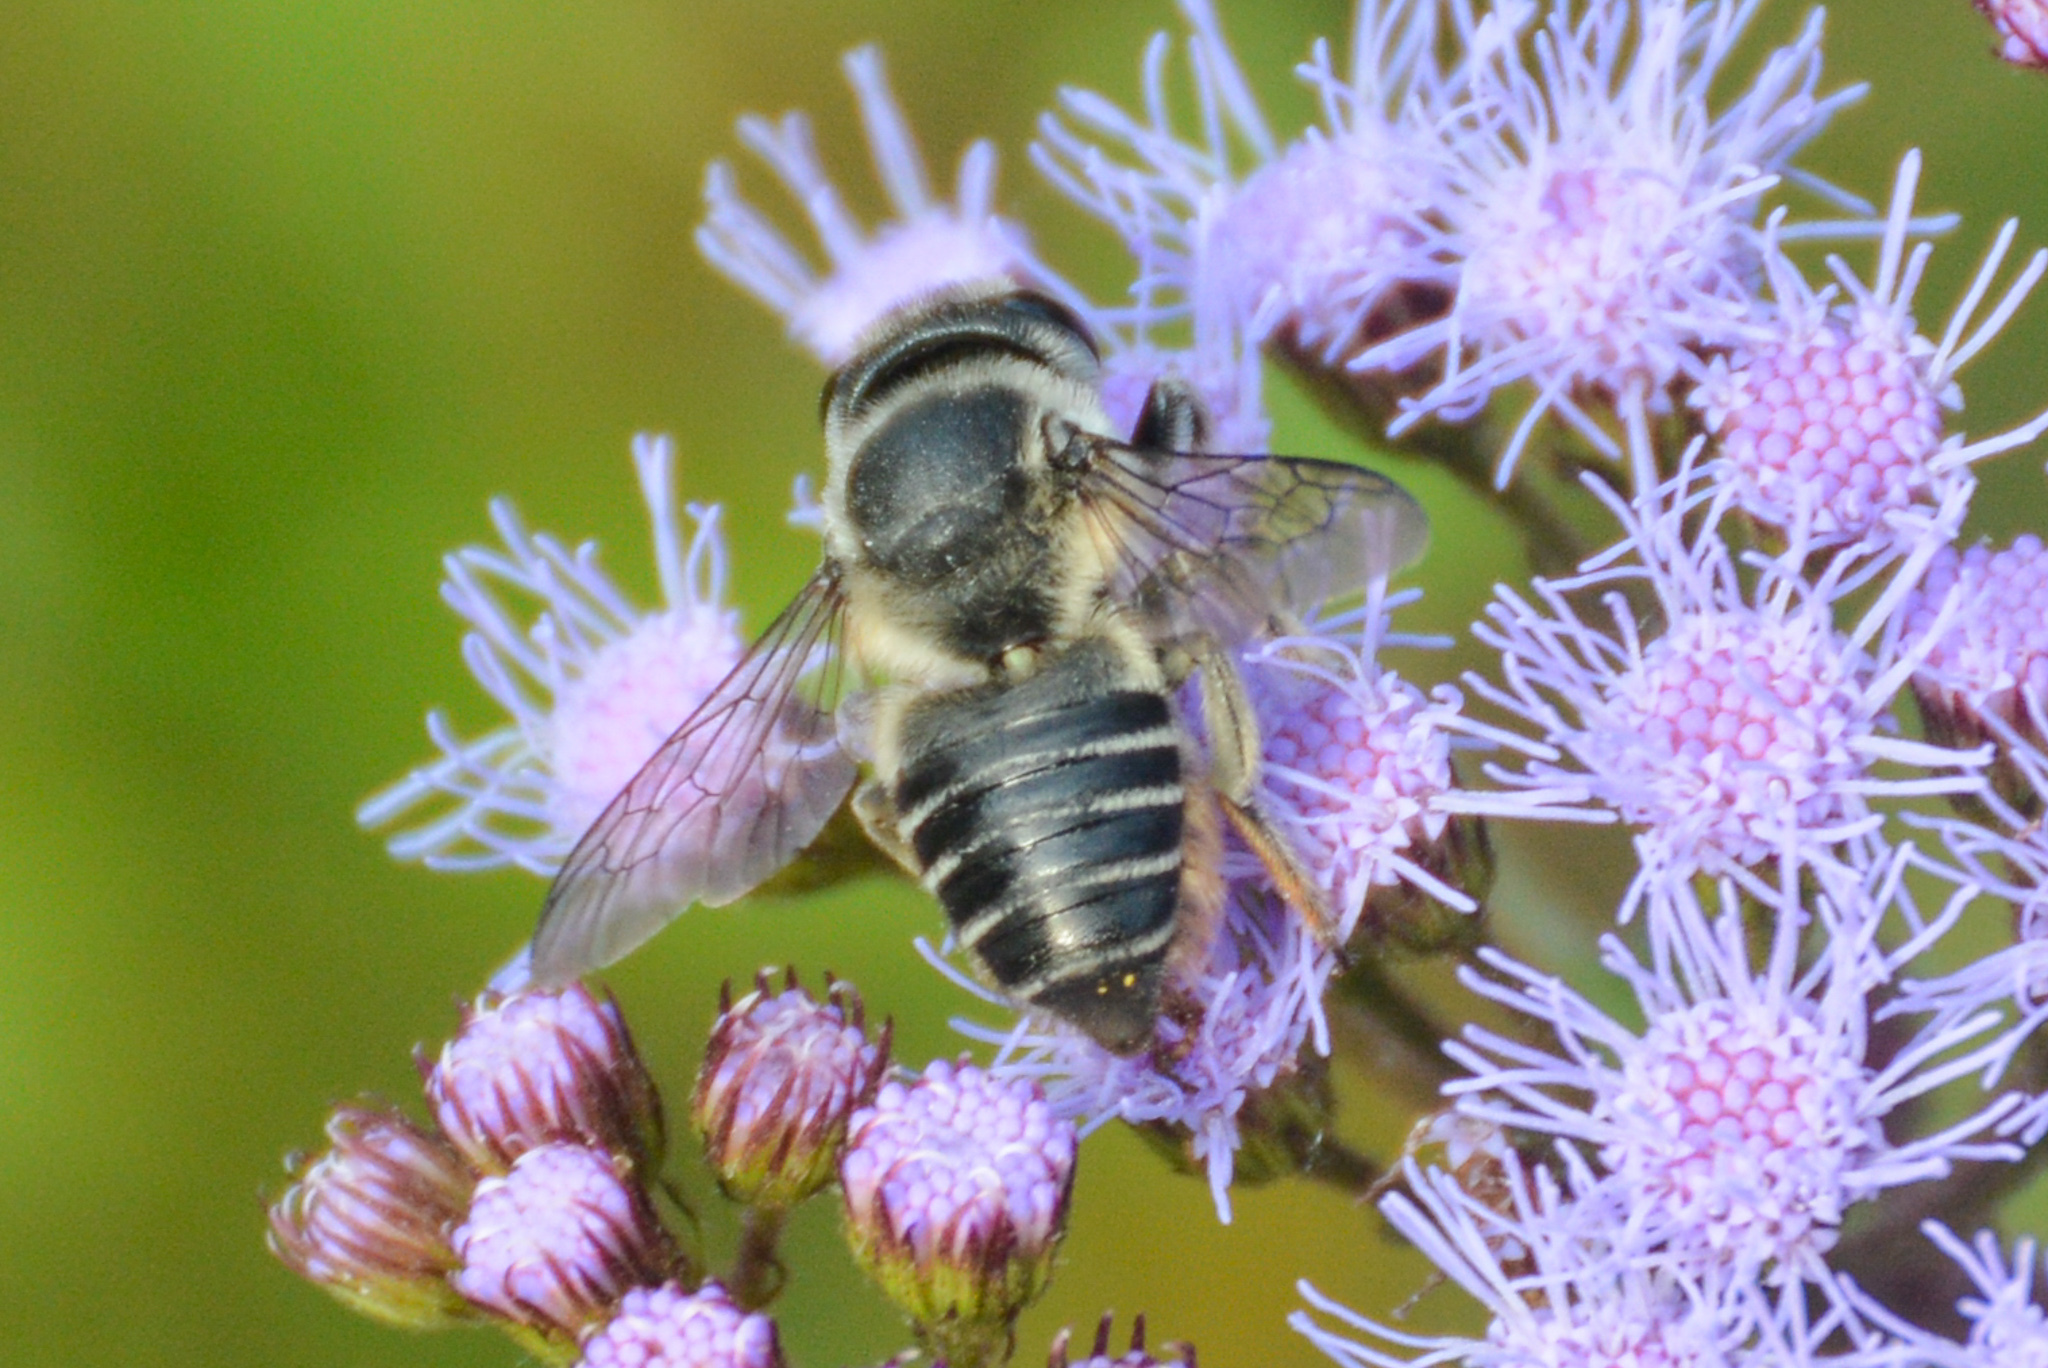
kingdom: Animalia
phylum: Arthropoda
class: Insecta
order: Hymenoptera
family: Megachilidae
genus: Megachile
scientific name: Megachile mendica
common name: Flat-tailed leafcutter
